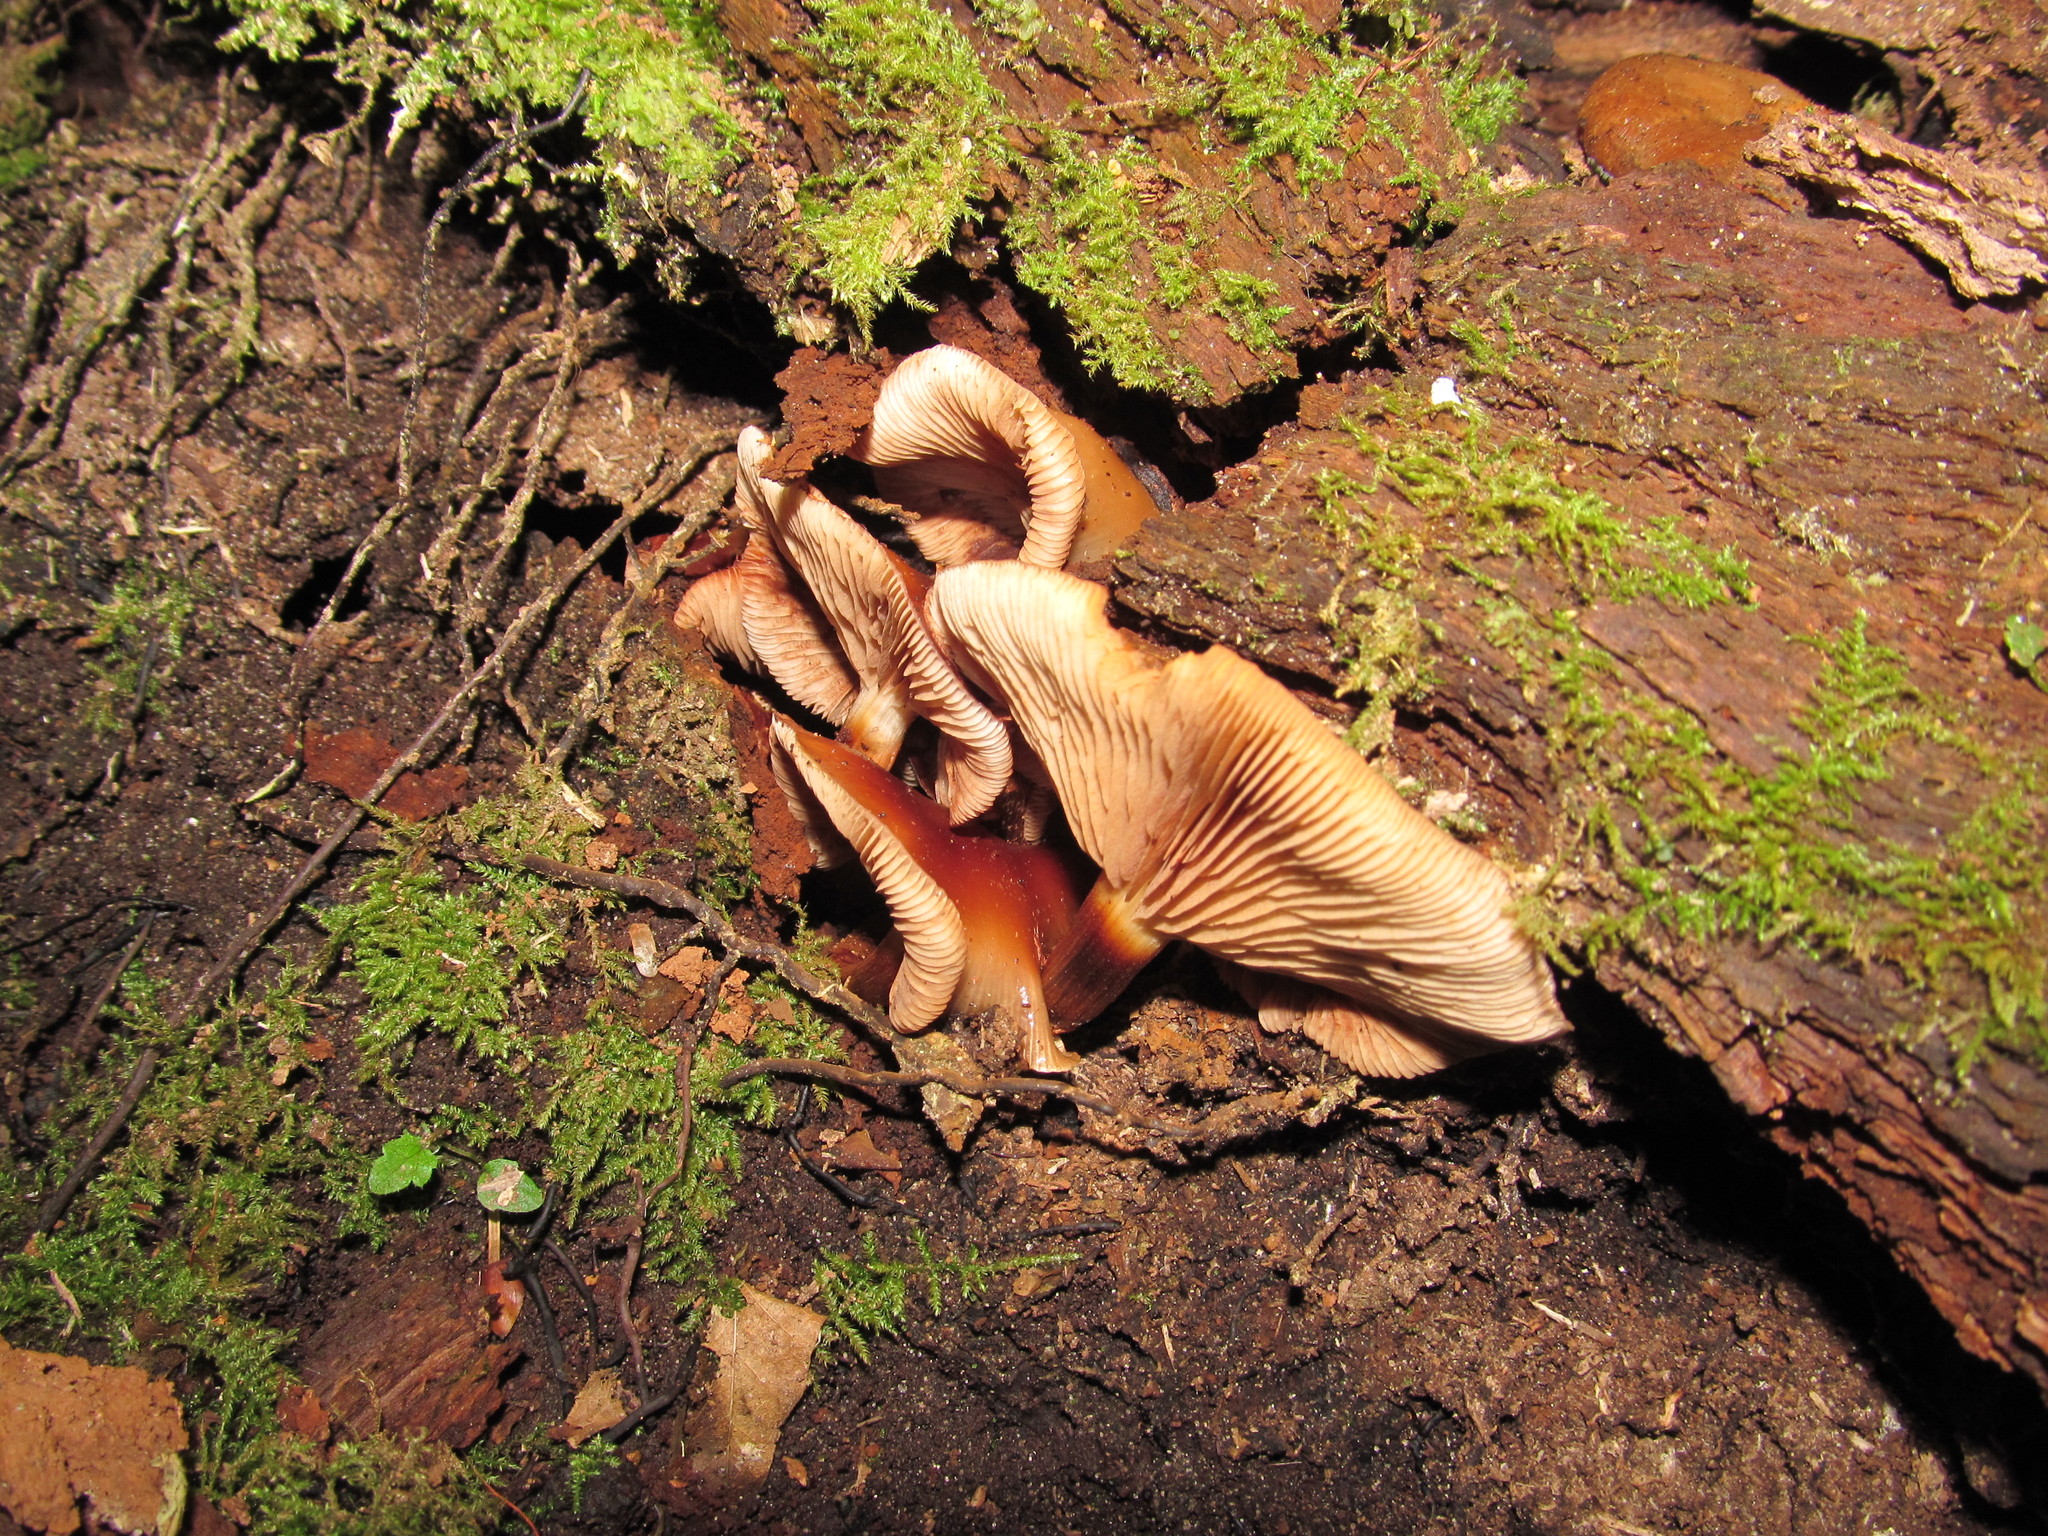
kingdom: Fungi
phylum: Basidiomycota
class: Agaricomycetes
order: Agaricales
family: Physalacriaceae
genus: Flammulina
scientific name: Flammulina velutipes
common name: Velvet shank
